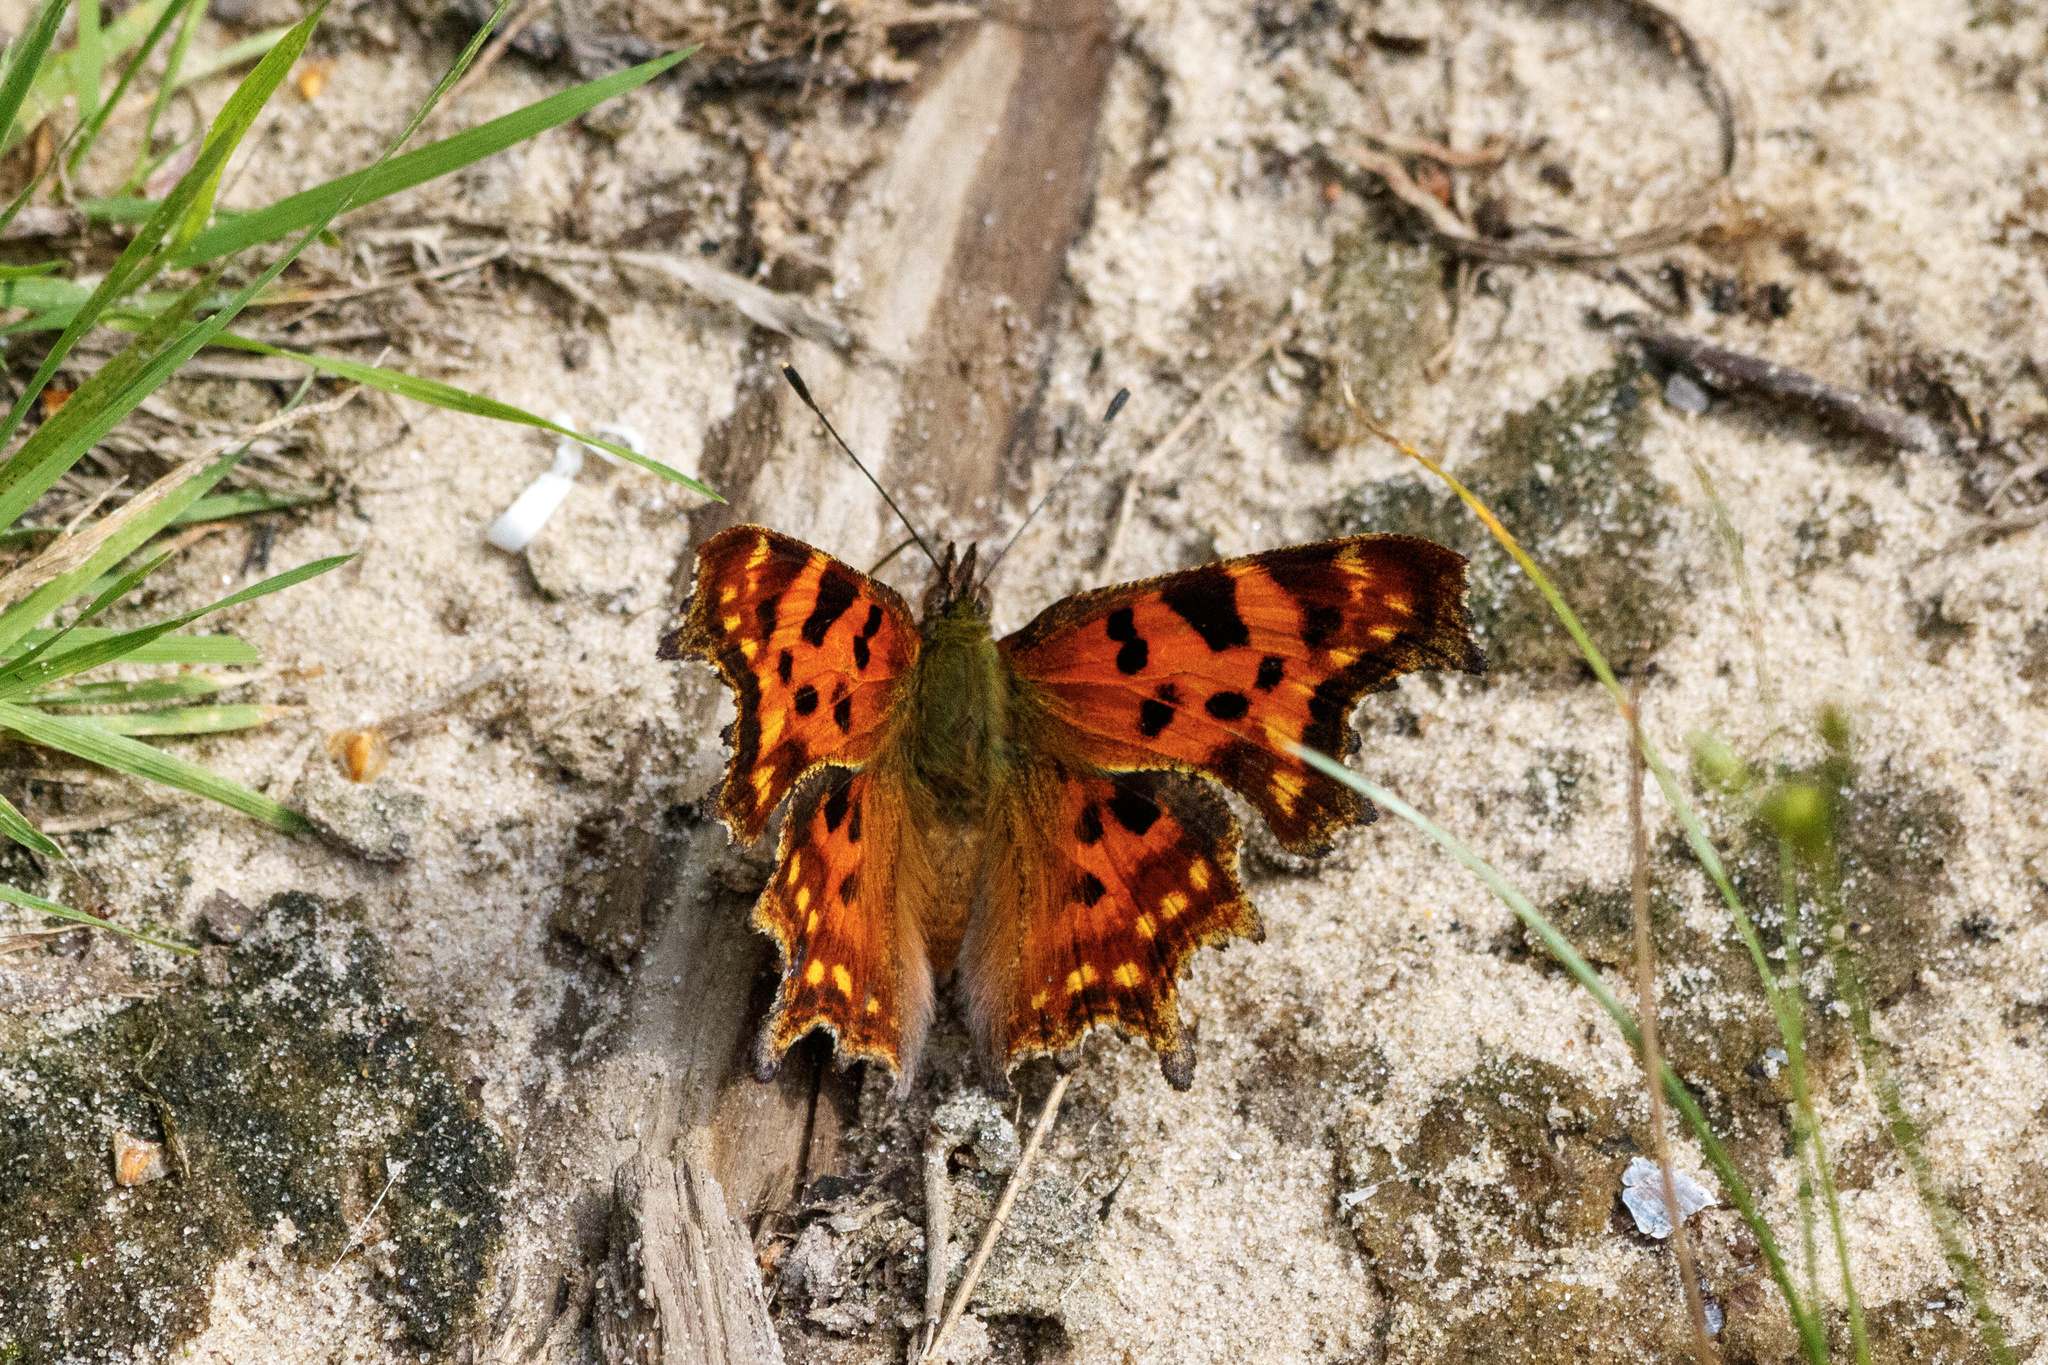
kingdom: Animalia
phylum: Arthropoda
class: Insecta
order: Lepidoptera
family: Nymphalidae
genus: Polygonia
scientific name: Polygonia c-album
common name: Comma
